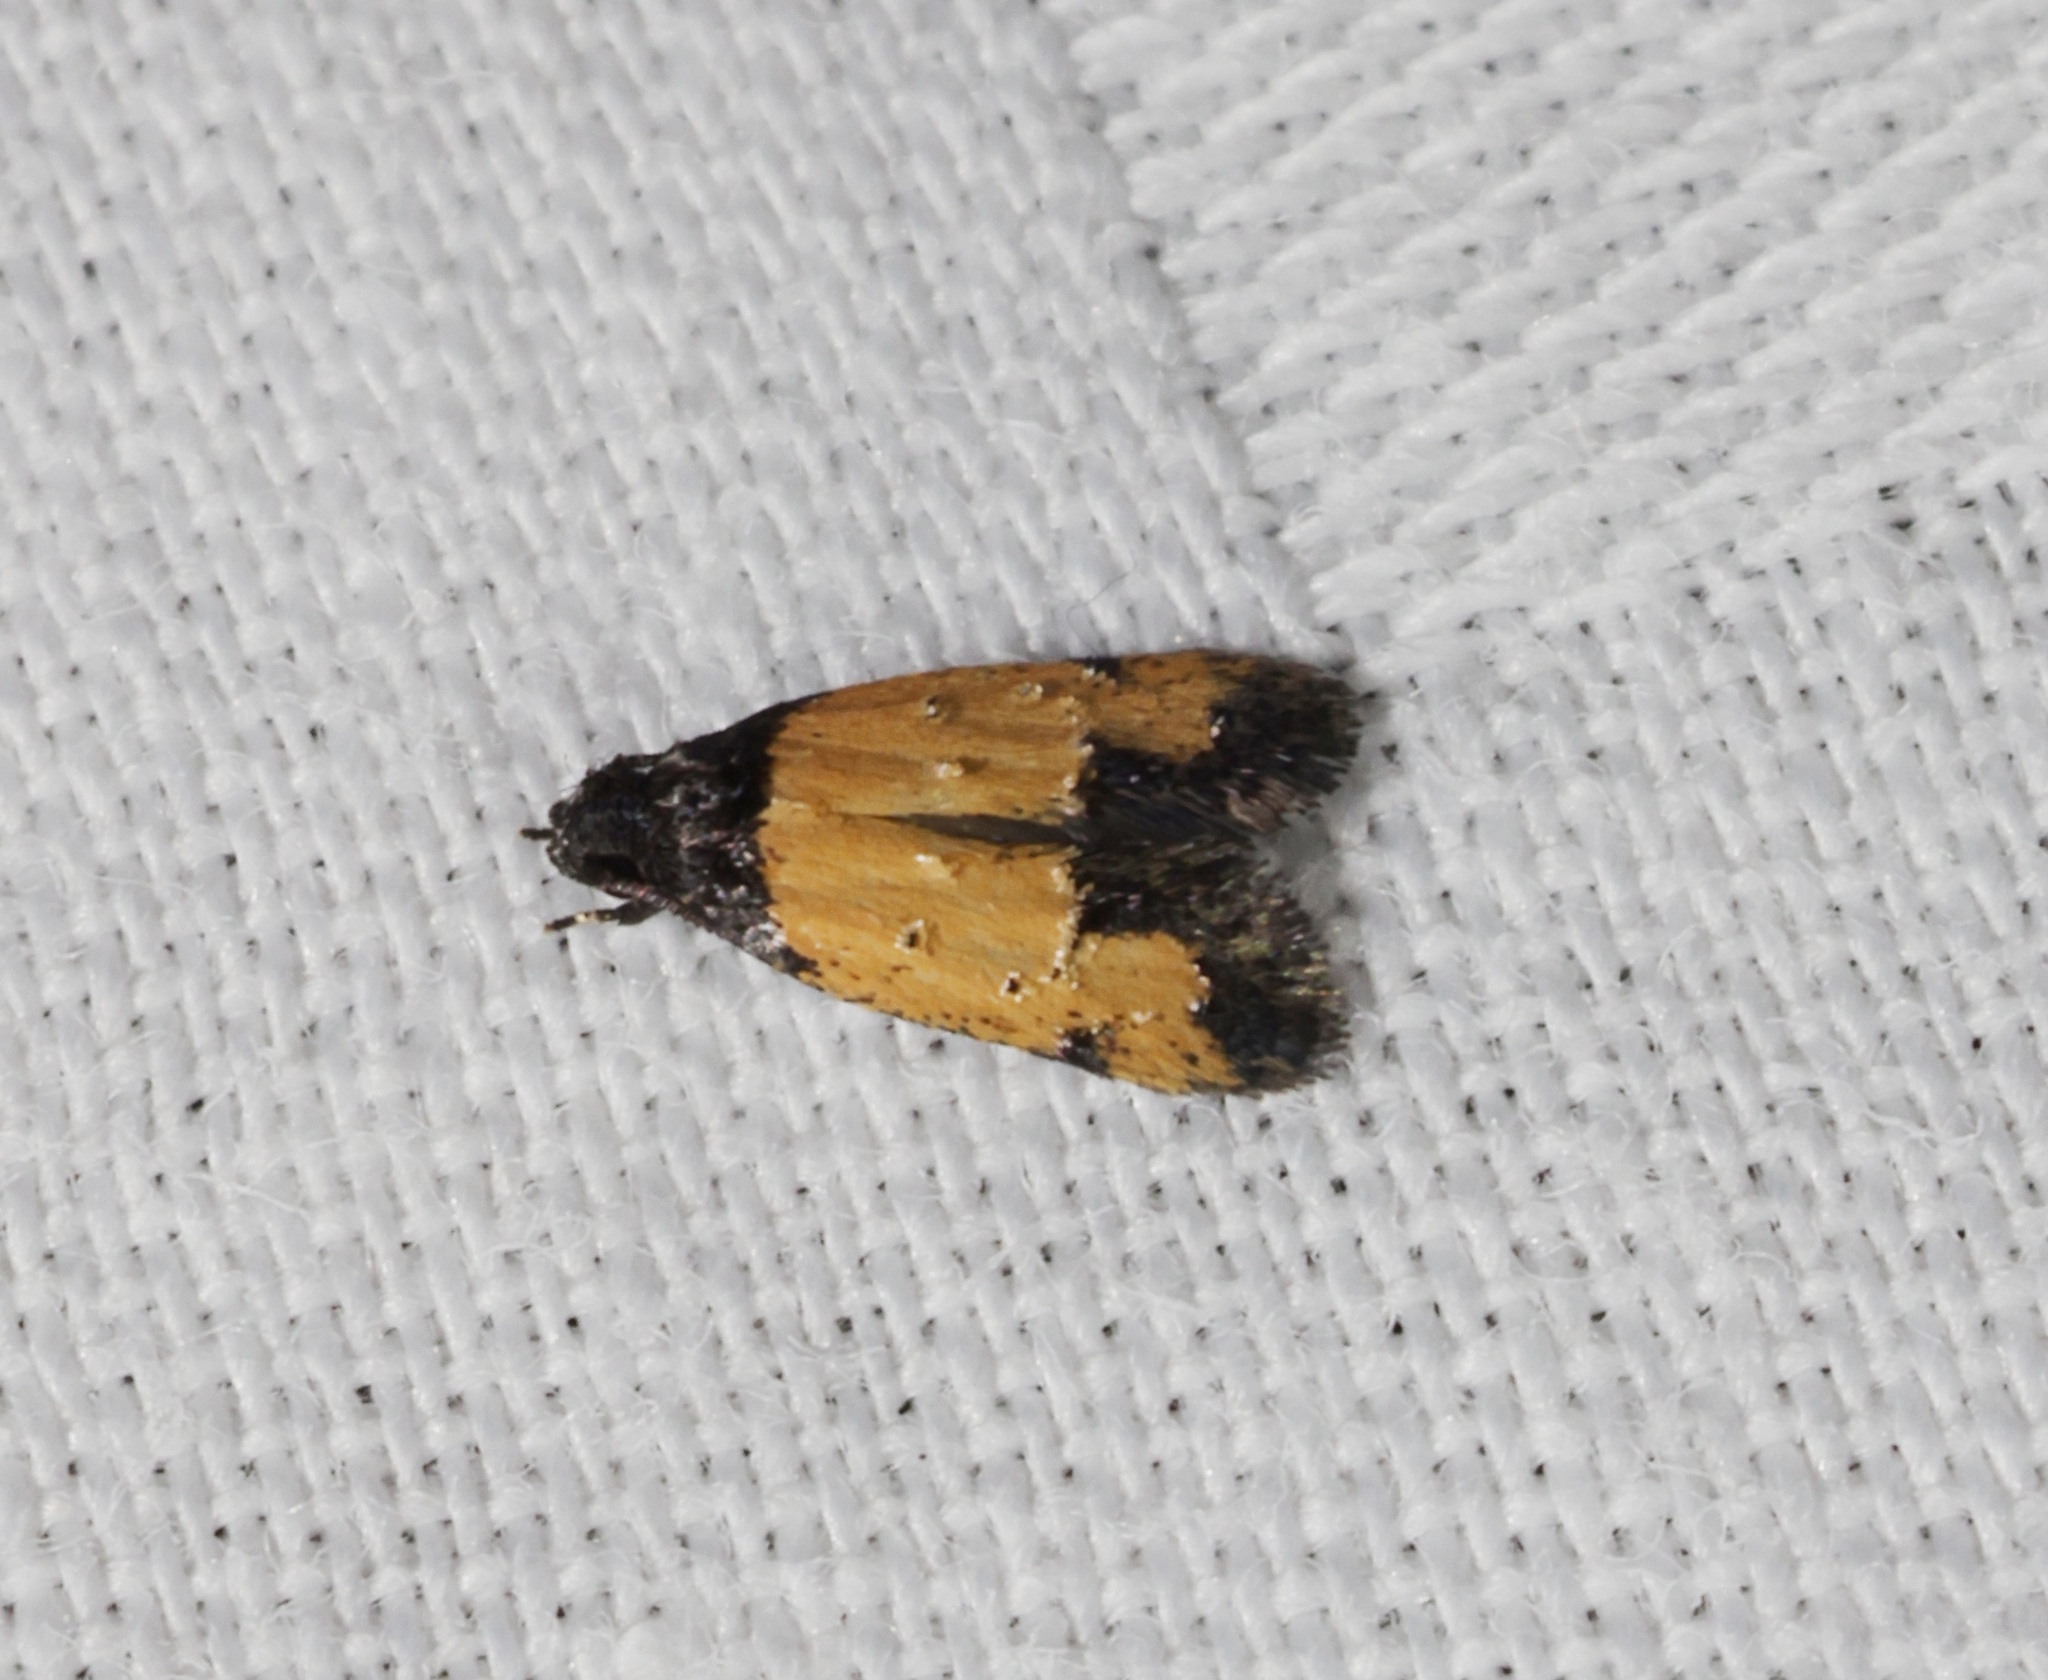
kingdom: Animalia
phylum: Arthropoda
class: Insecta
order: Lepidoptera
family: Oecophoridae
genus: Tyrolimnas
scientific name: Tyrolimnas anthraconesa
